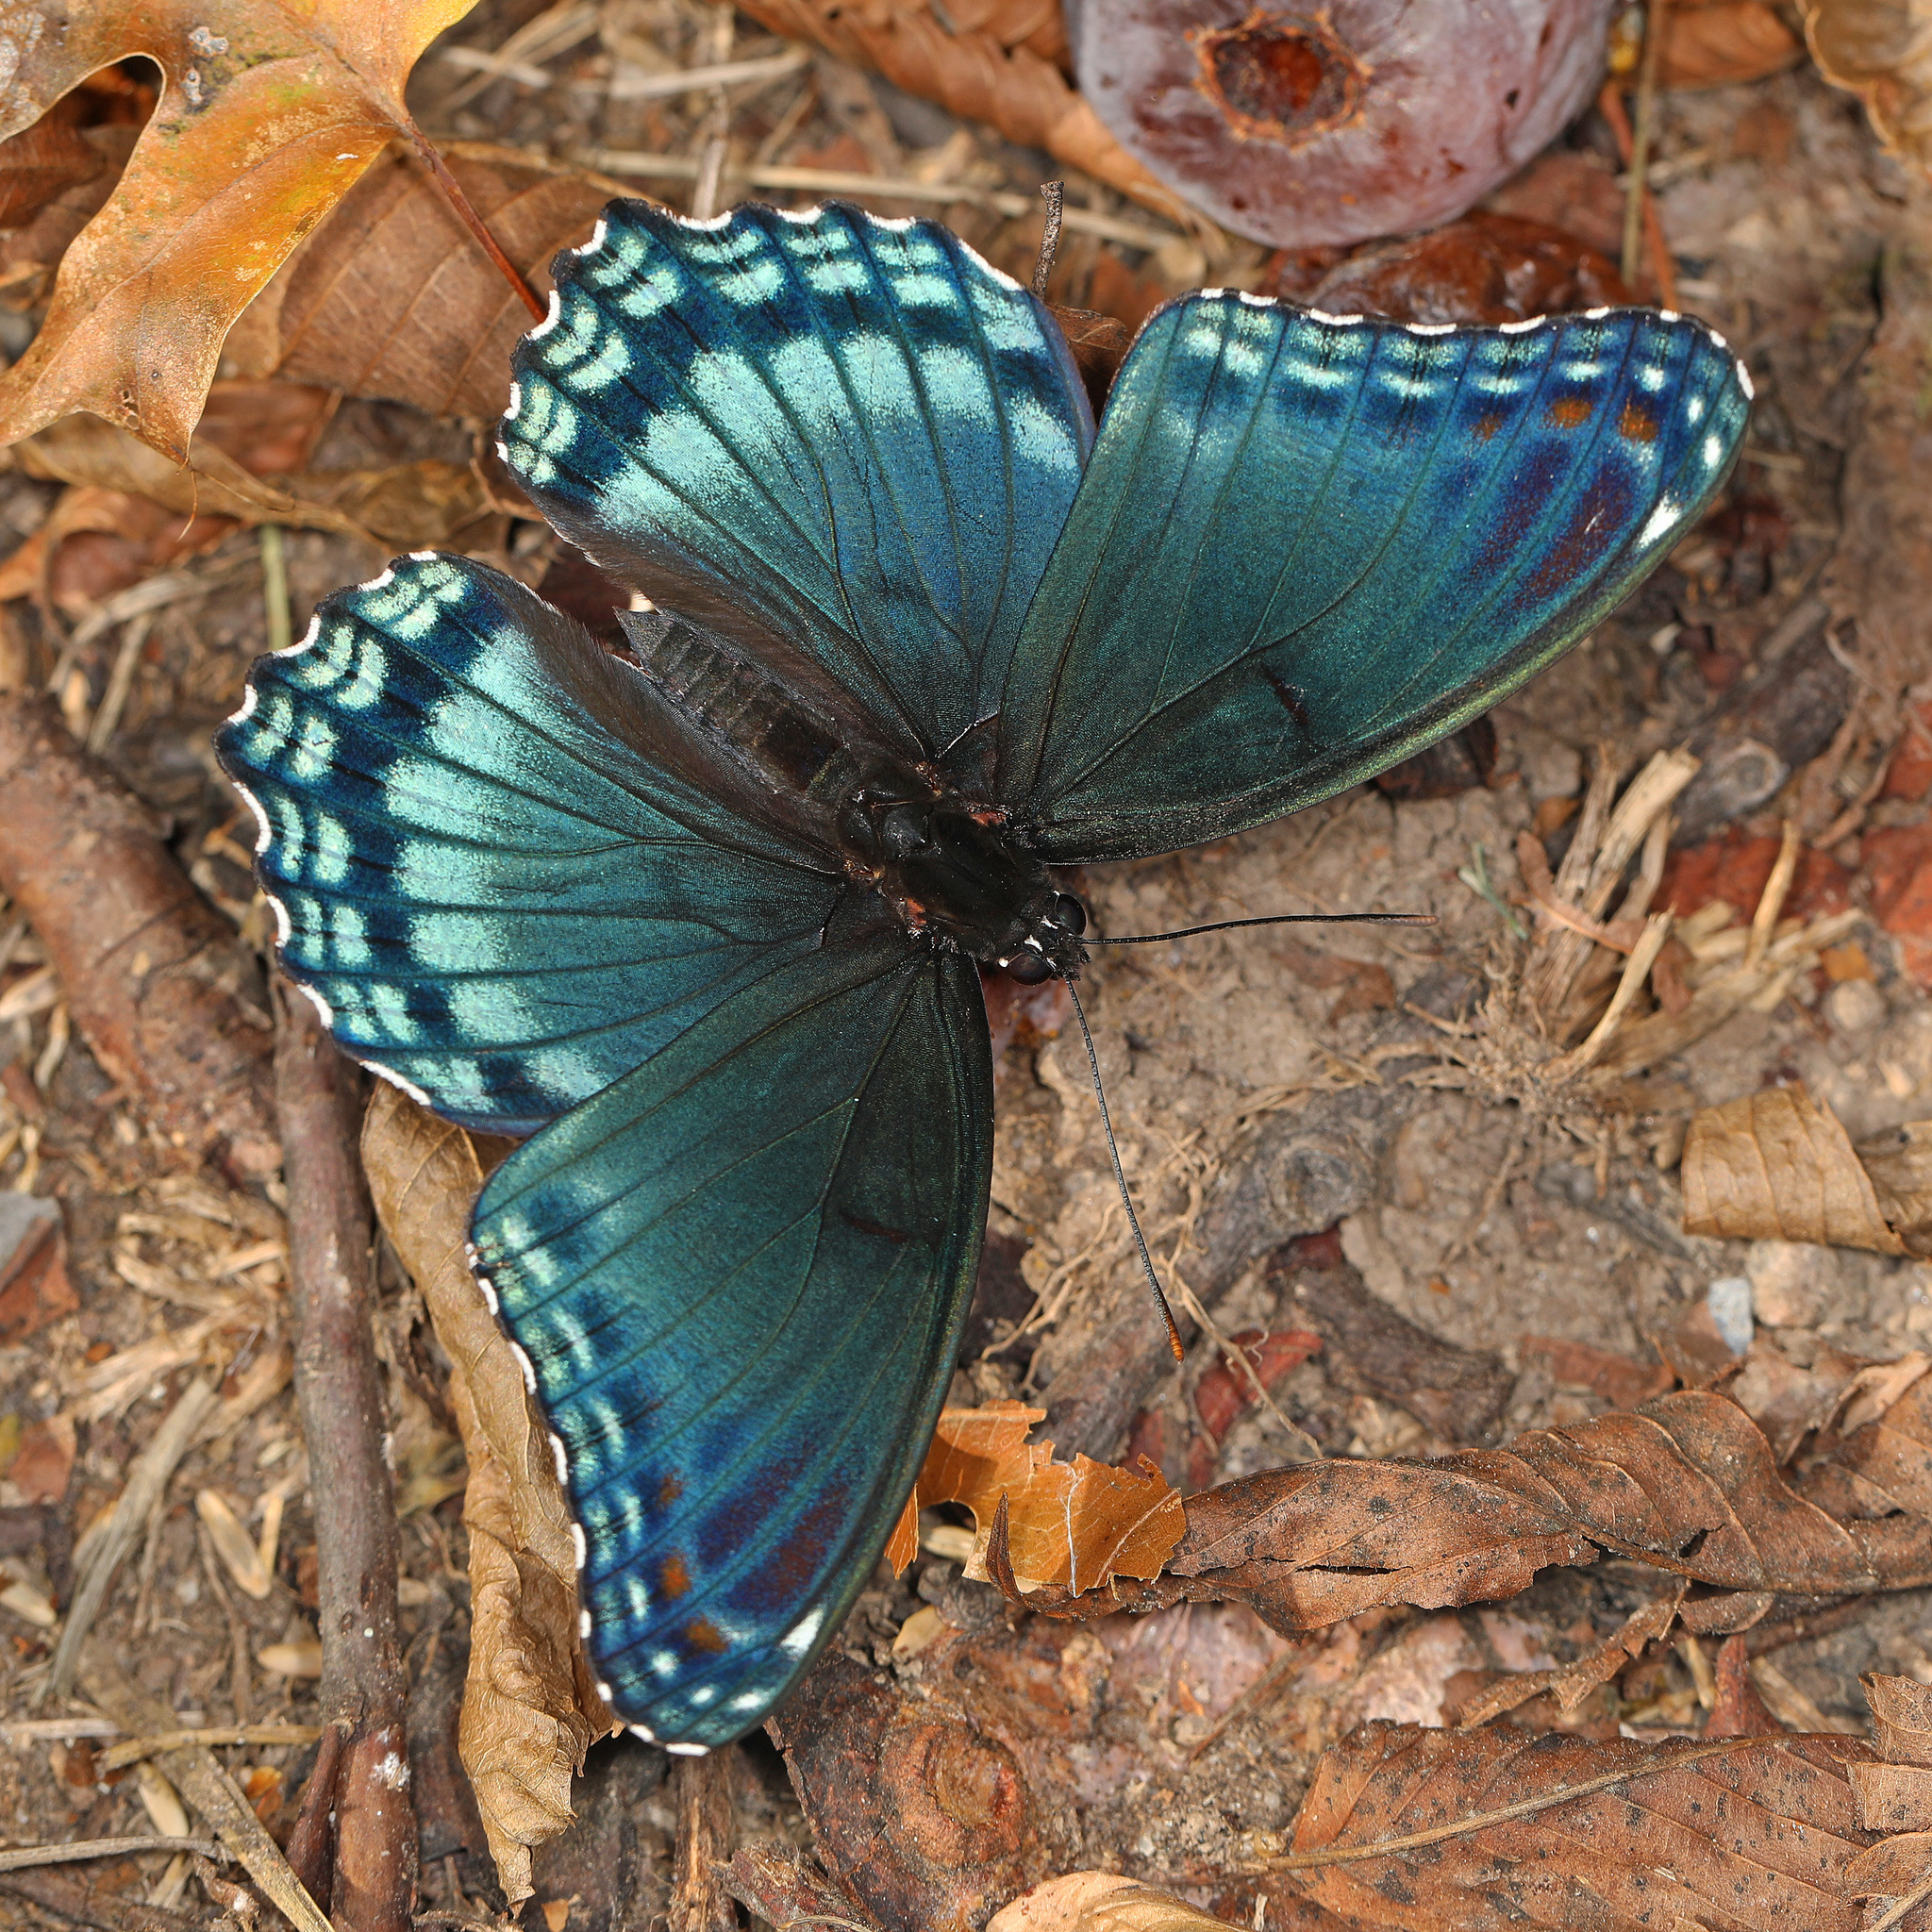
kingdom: Animalia
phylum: Arthropoda
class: Insecta
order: Lepidoptera
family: Nymphalidae
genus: Limenitis
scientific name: Limenitis astyanax
